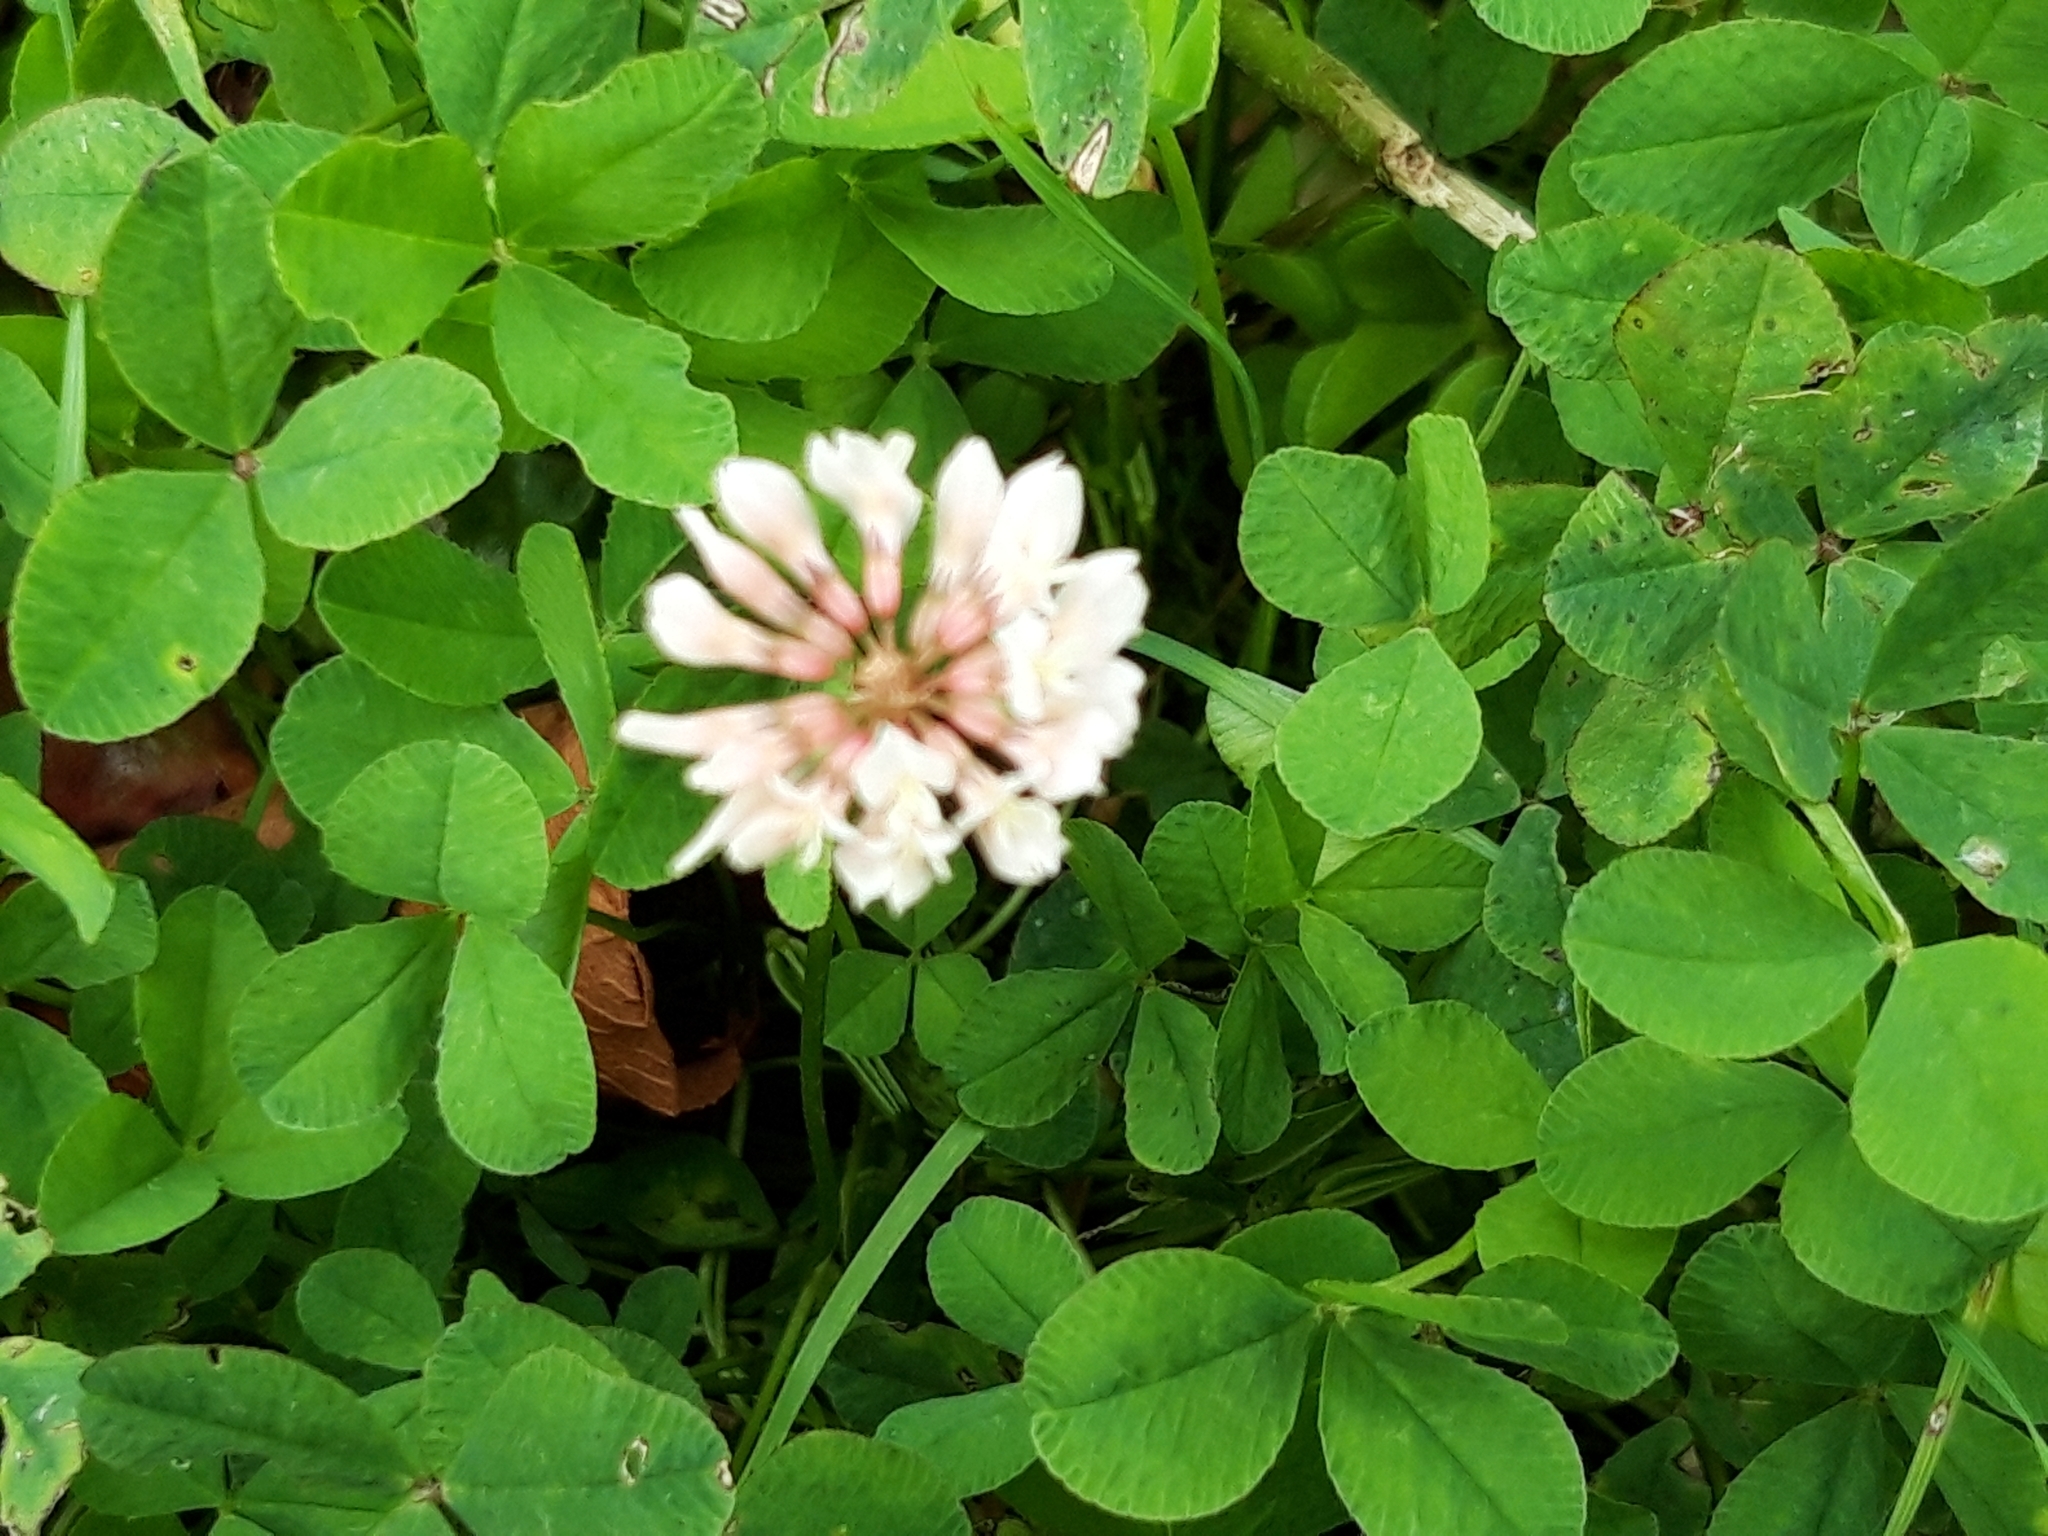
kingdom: Plantae
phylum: Tracheophyta
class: Magnoliopsida
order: Fabales
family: Fabaceae
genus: Trifolium
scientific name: Trifolium repens
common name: White clover
